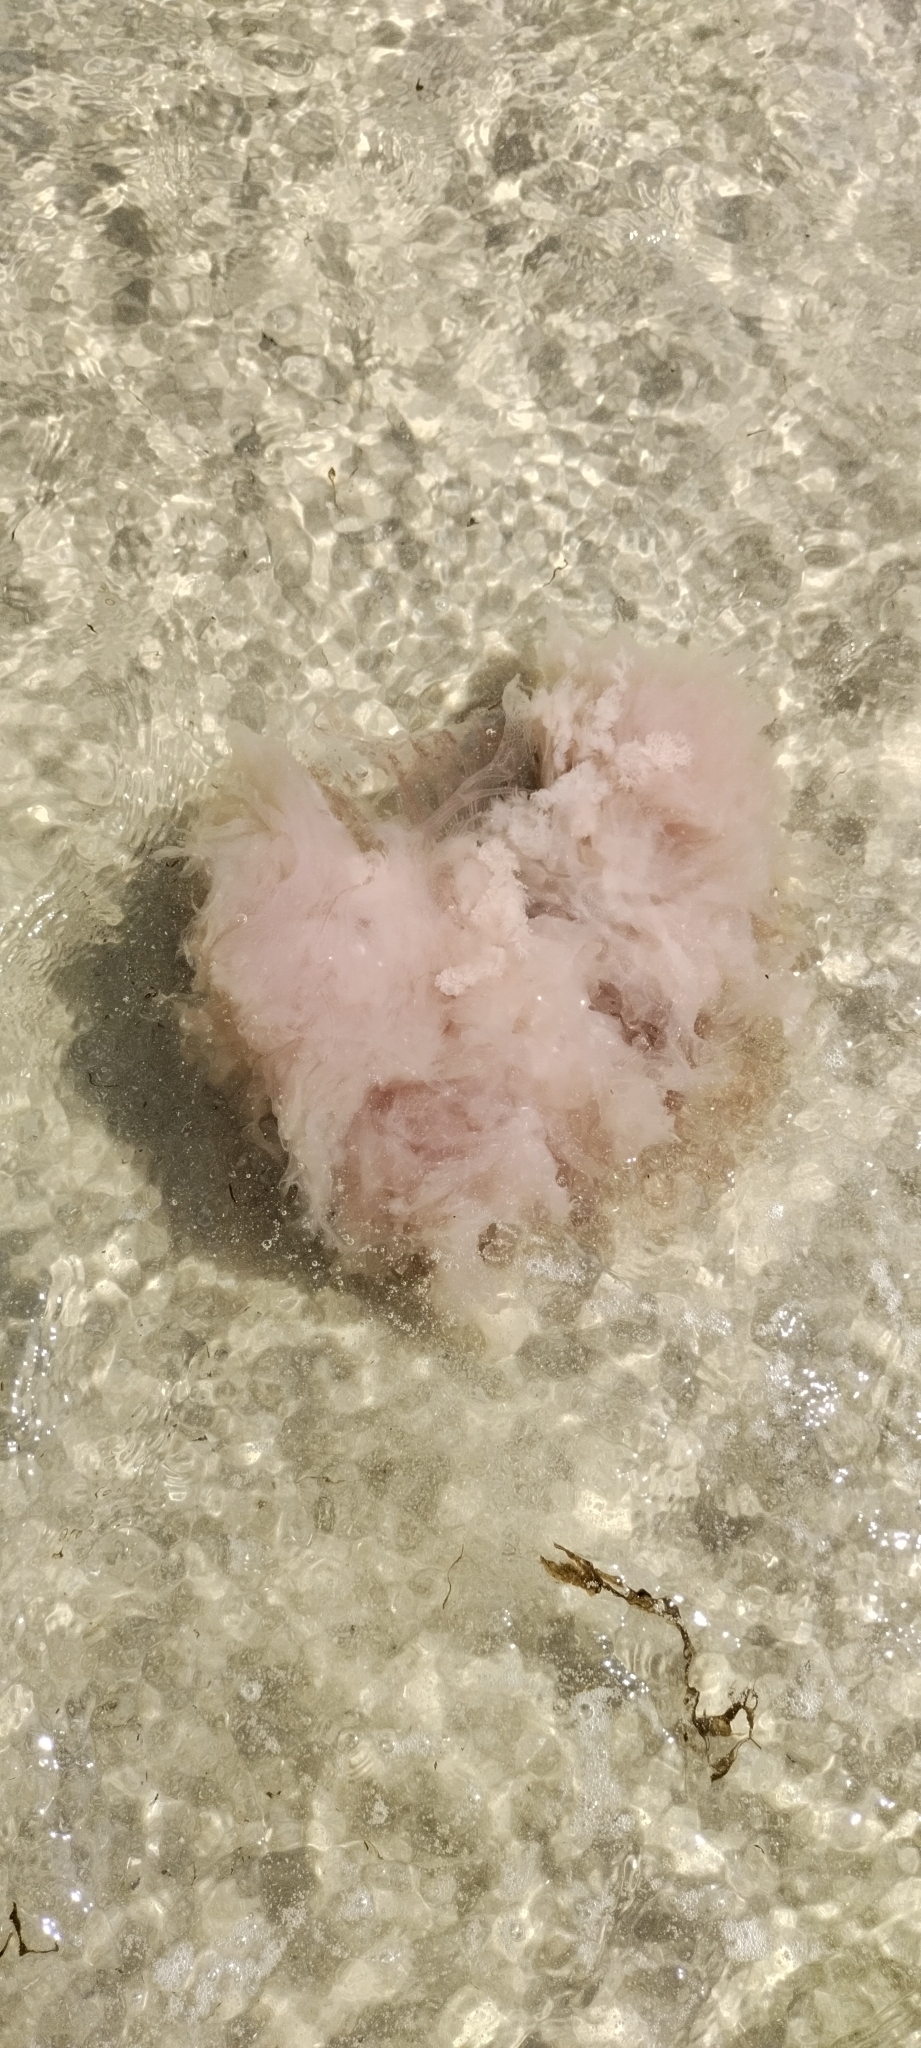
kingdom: Animalia
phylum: Cnidaria
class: Scyphozoa
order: Semaeostomeae
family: Drymonematidae
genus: Drymonema
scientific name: Drymonema larsoni
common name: Larson's jellyfish
